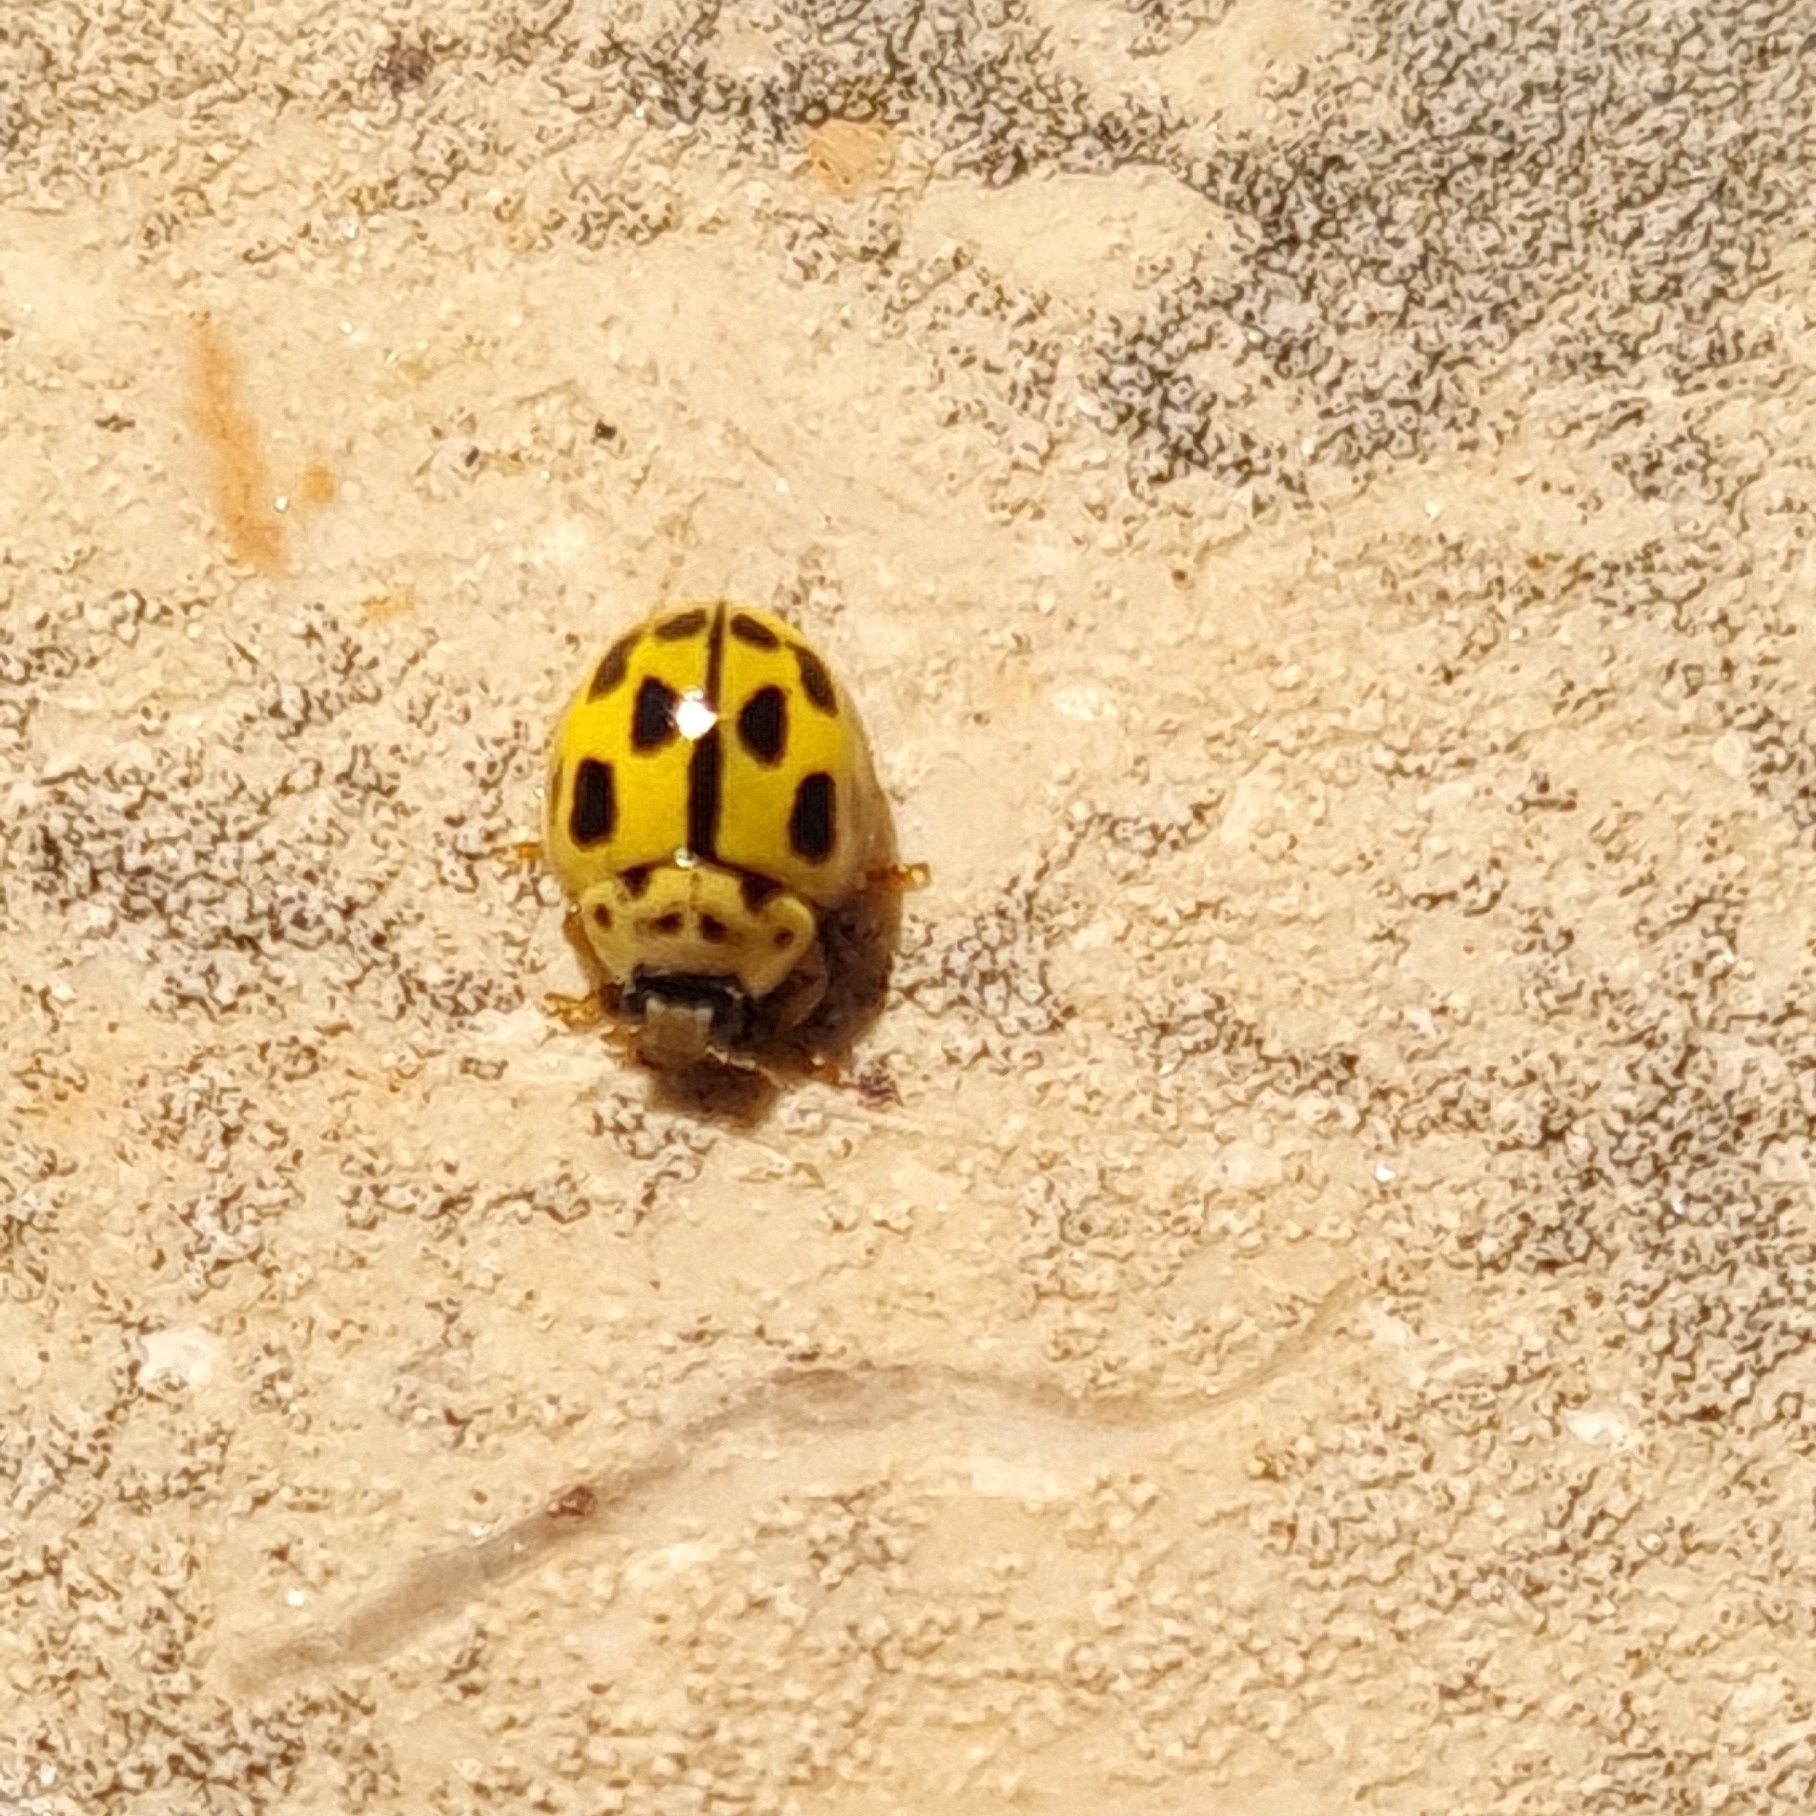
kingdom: Animalia
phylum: Arthropoda
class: Insecta
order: Coleoptera
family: Coccinellidae
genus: Propylaea
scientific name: Propylaea quatuordecimpunctata
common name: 14-spotted ladybird beetle
